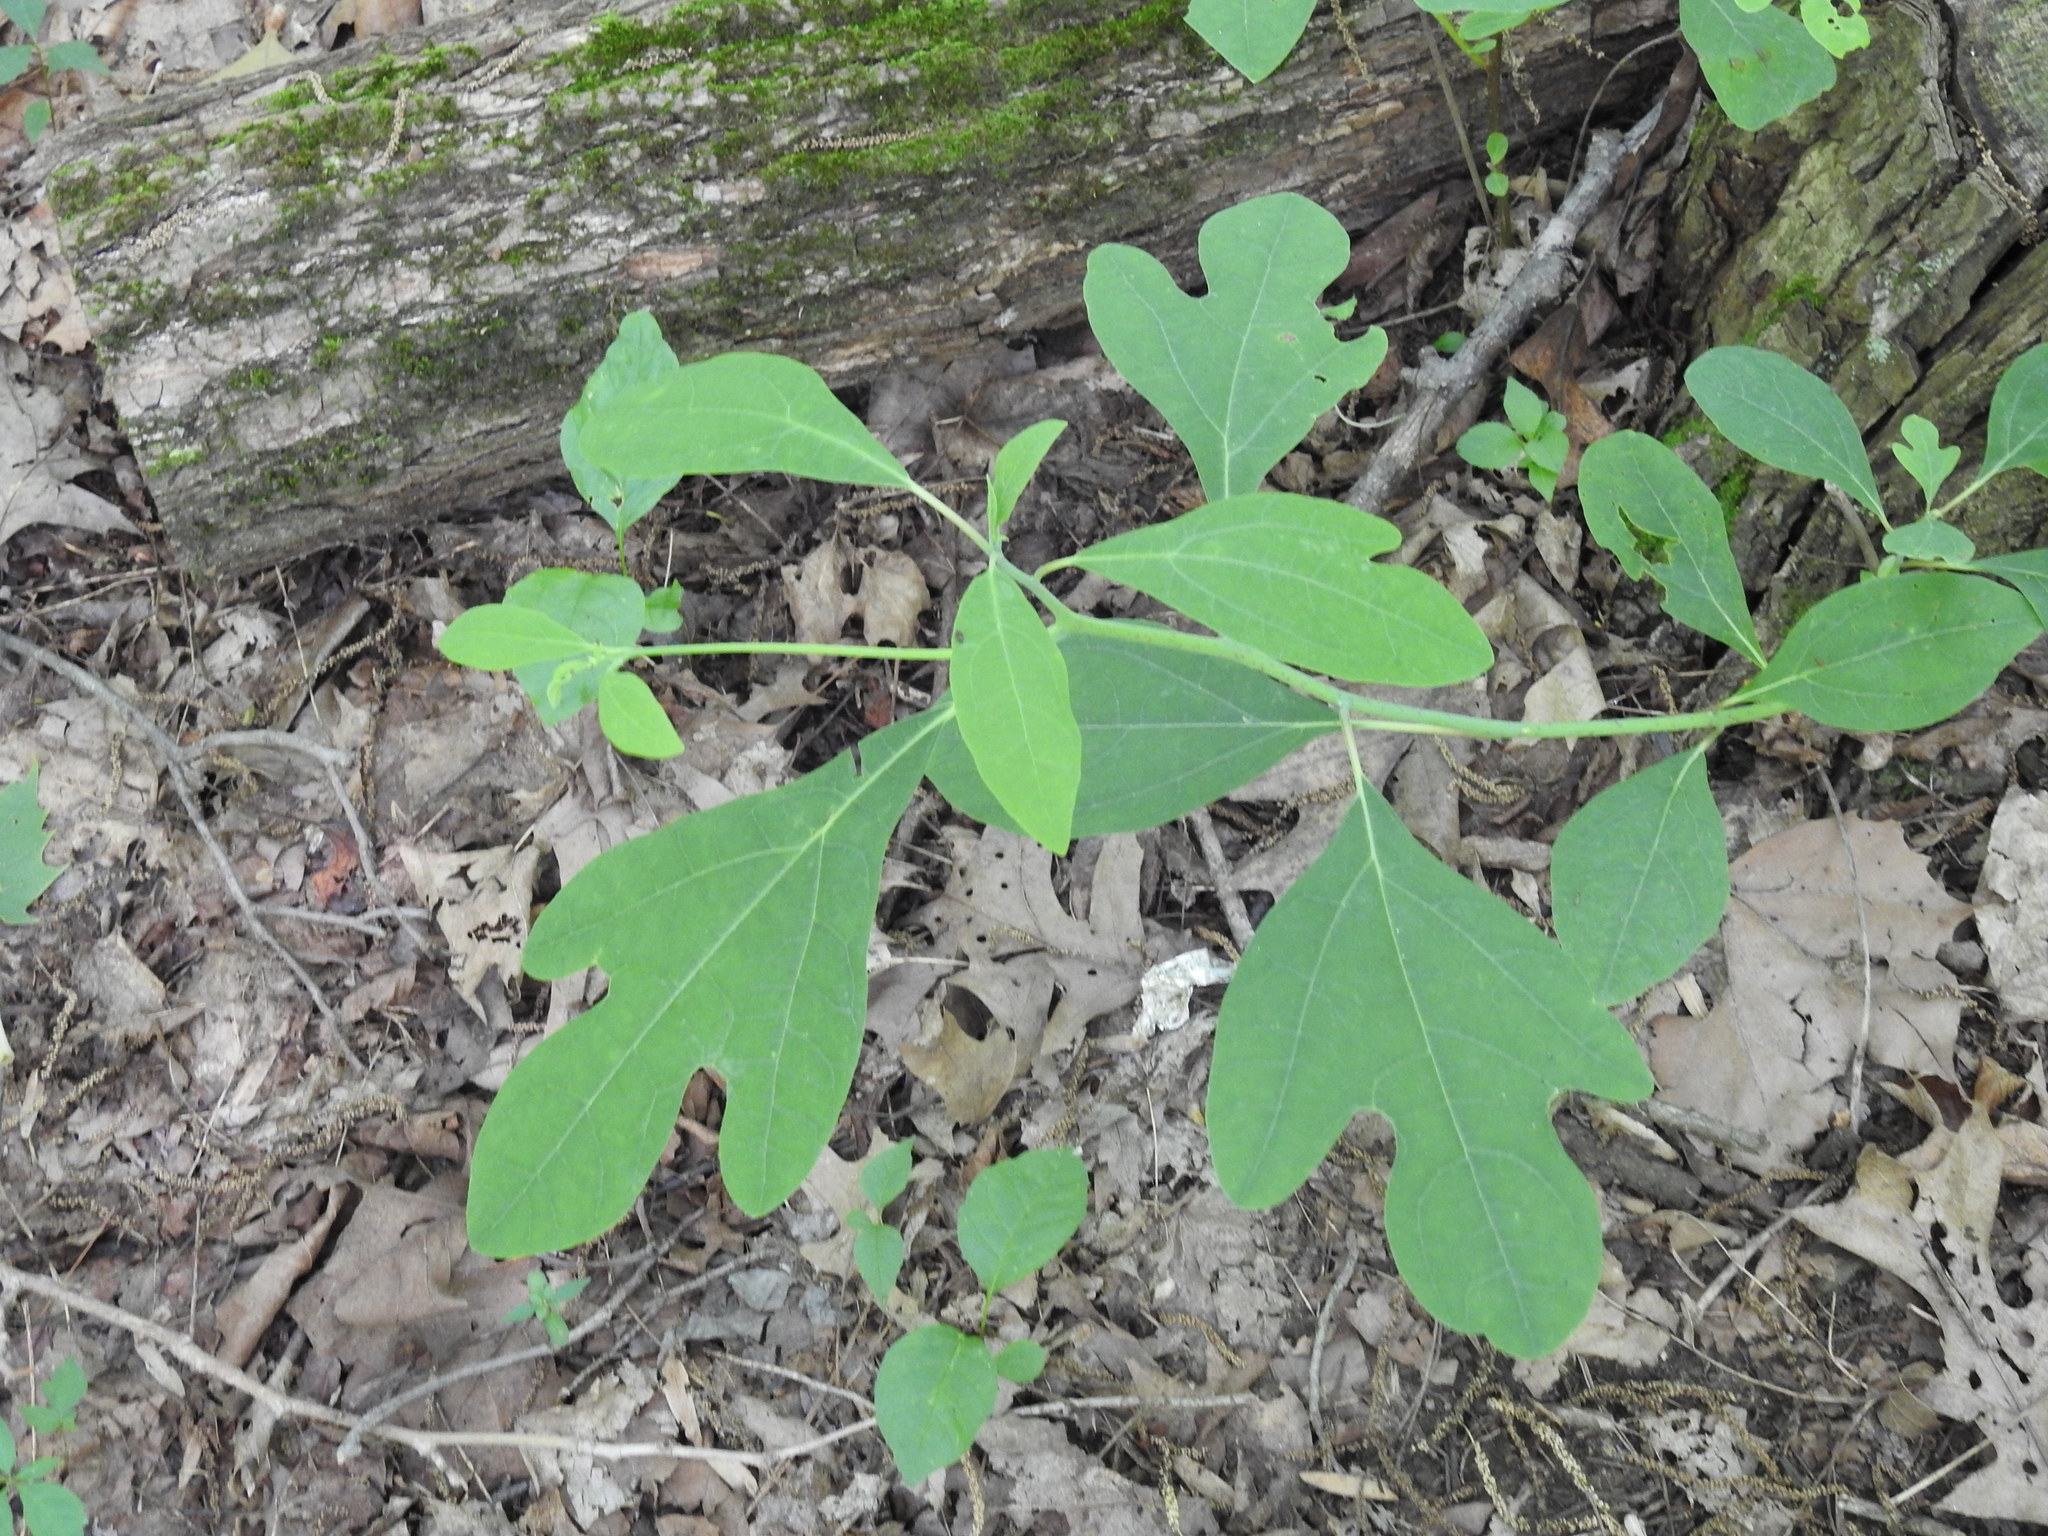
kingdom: Plantae
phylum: Tracheophyta
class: Magnoliopsida
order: Laurales
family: Lauraceae
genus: Sassafras
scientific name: Sassafras albidum
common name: Sassafras
